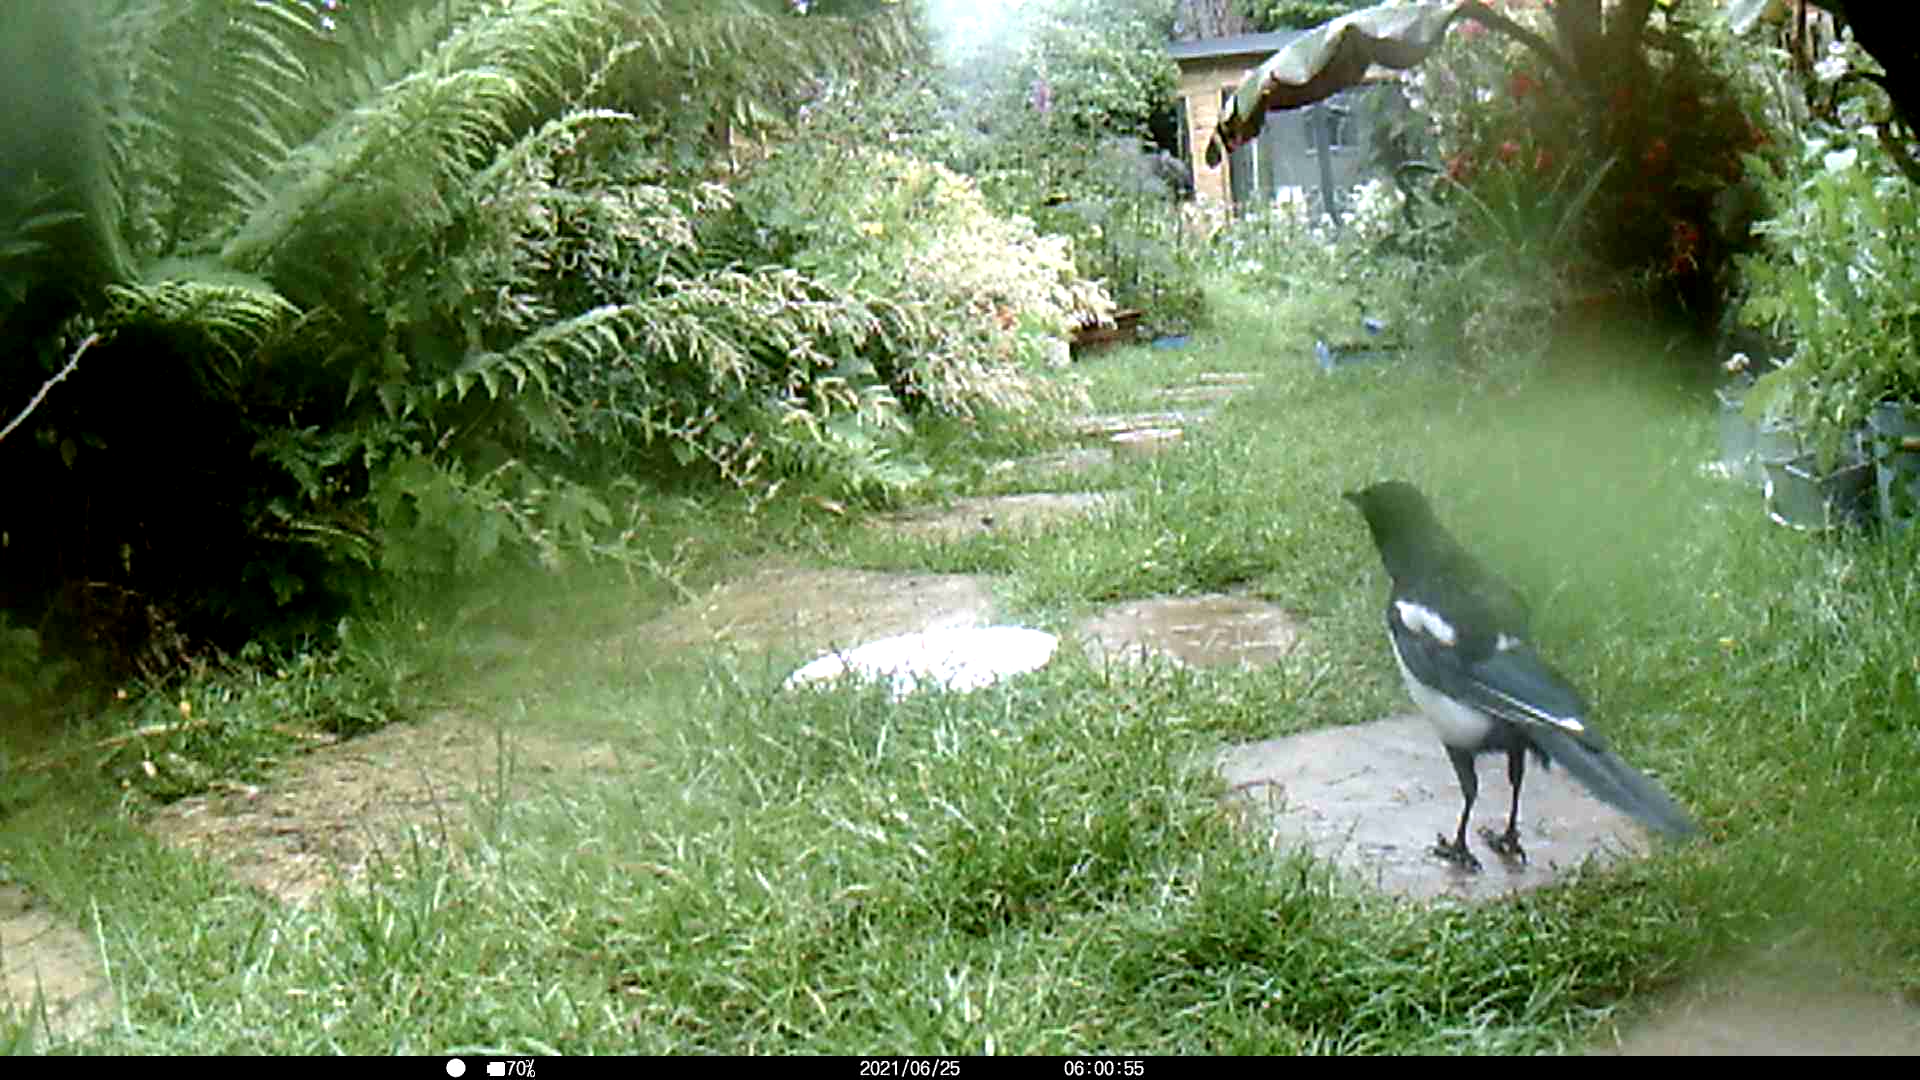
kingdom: Animalia
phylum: Chordata
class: Aves
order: Passeriformes
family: Corvidae
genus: Pica
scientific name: Pica pica
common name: Eurasian magpie
